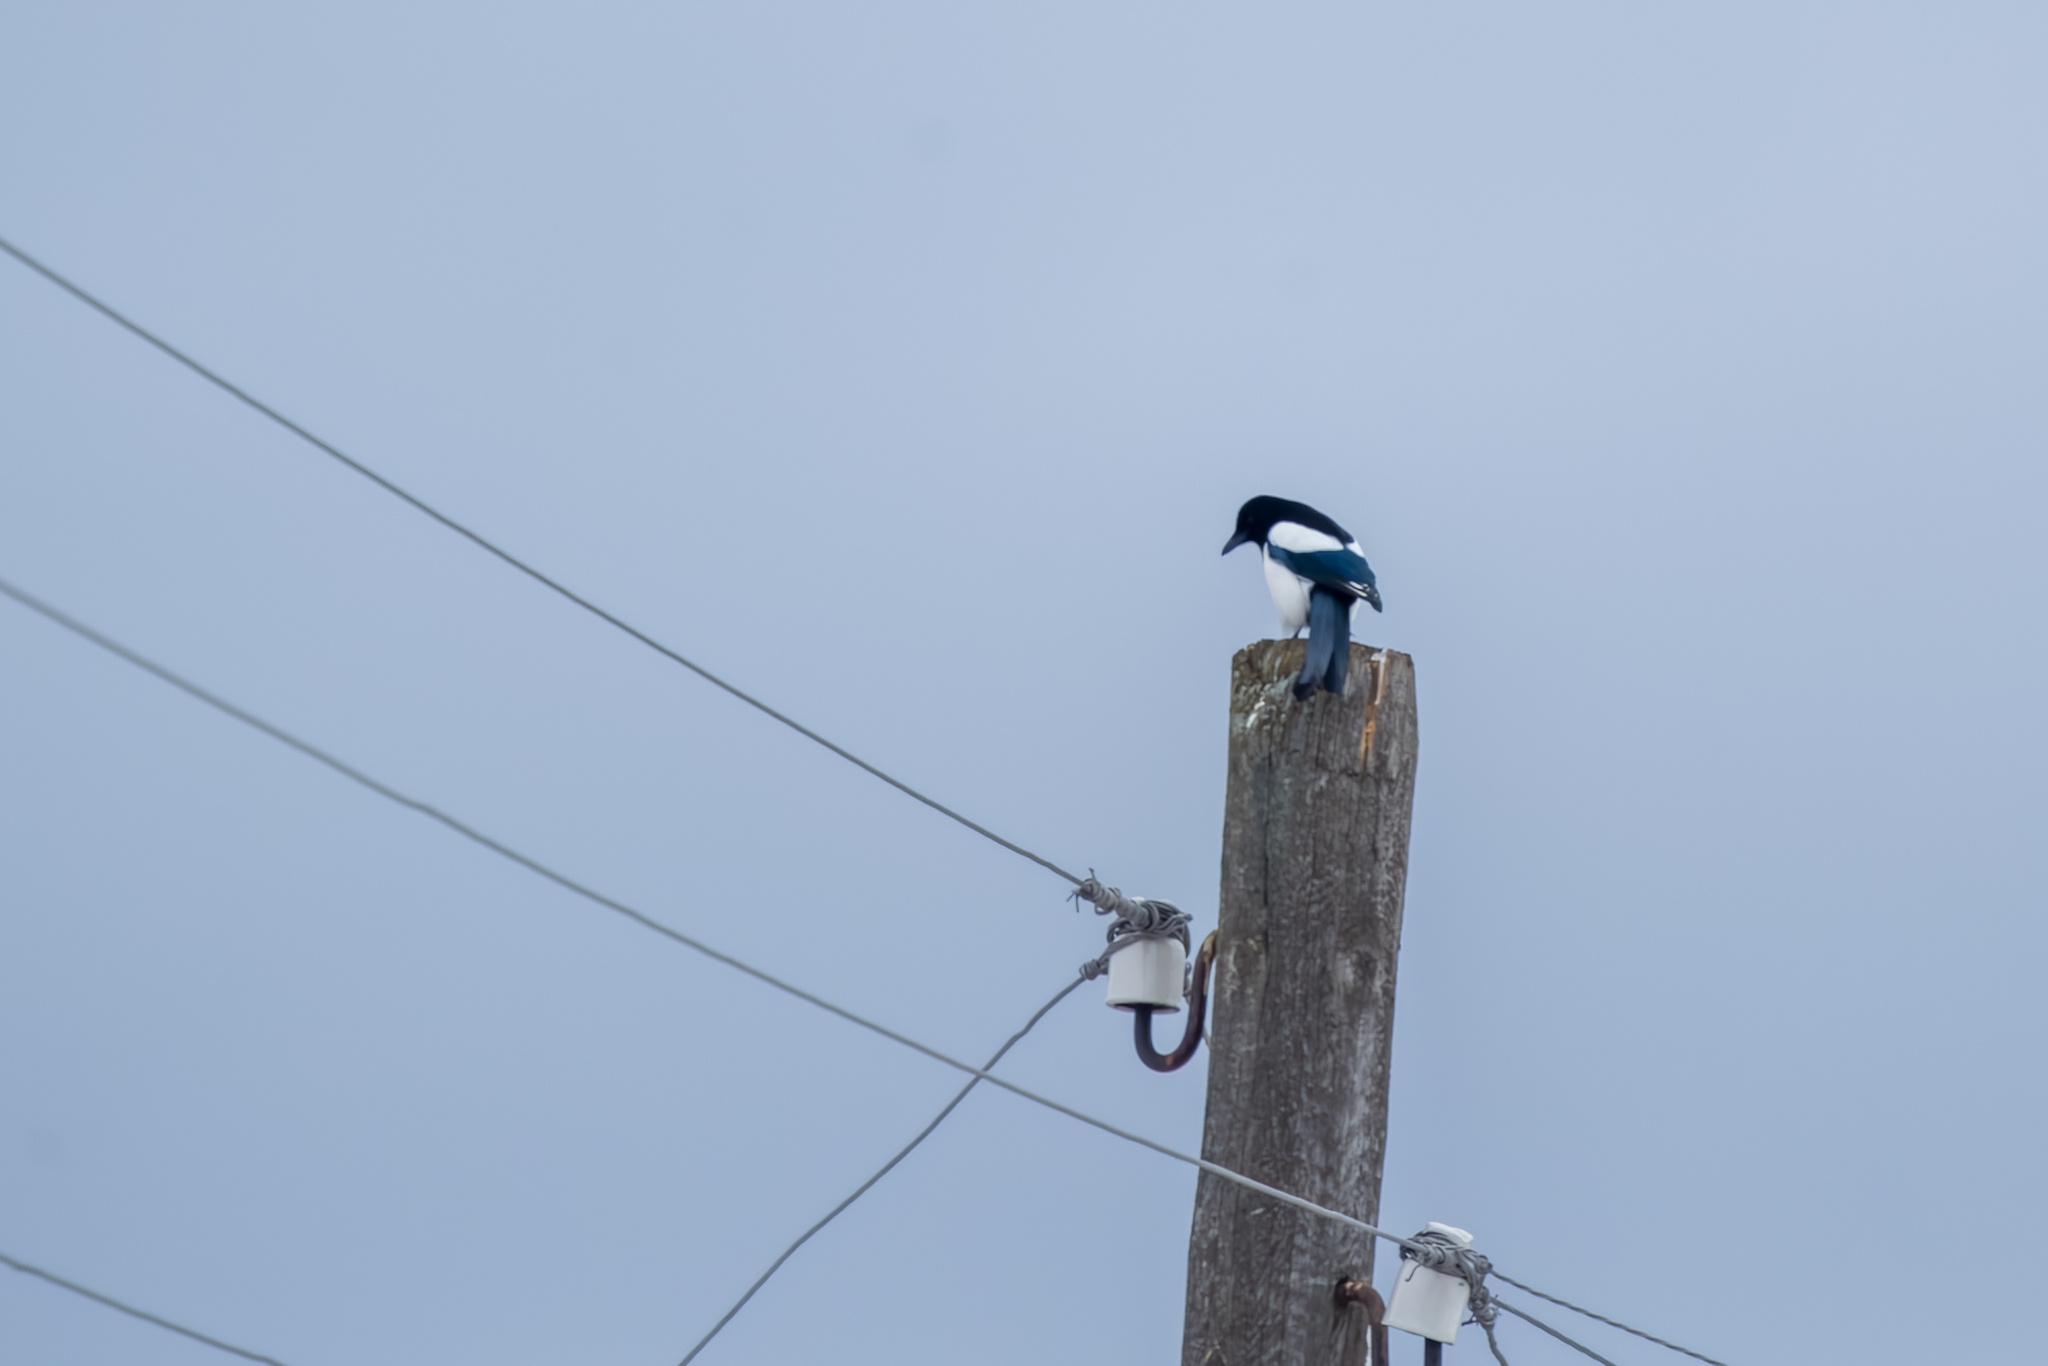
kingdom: Animalia
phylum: Chordata
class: Aves
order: Passeriformes
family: Corvidae
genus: Pica
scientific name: Pica pica
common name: Eurasian magpie
